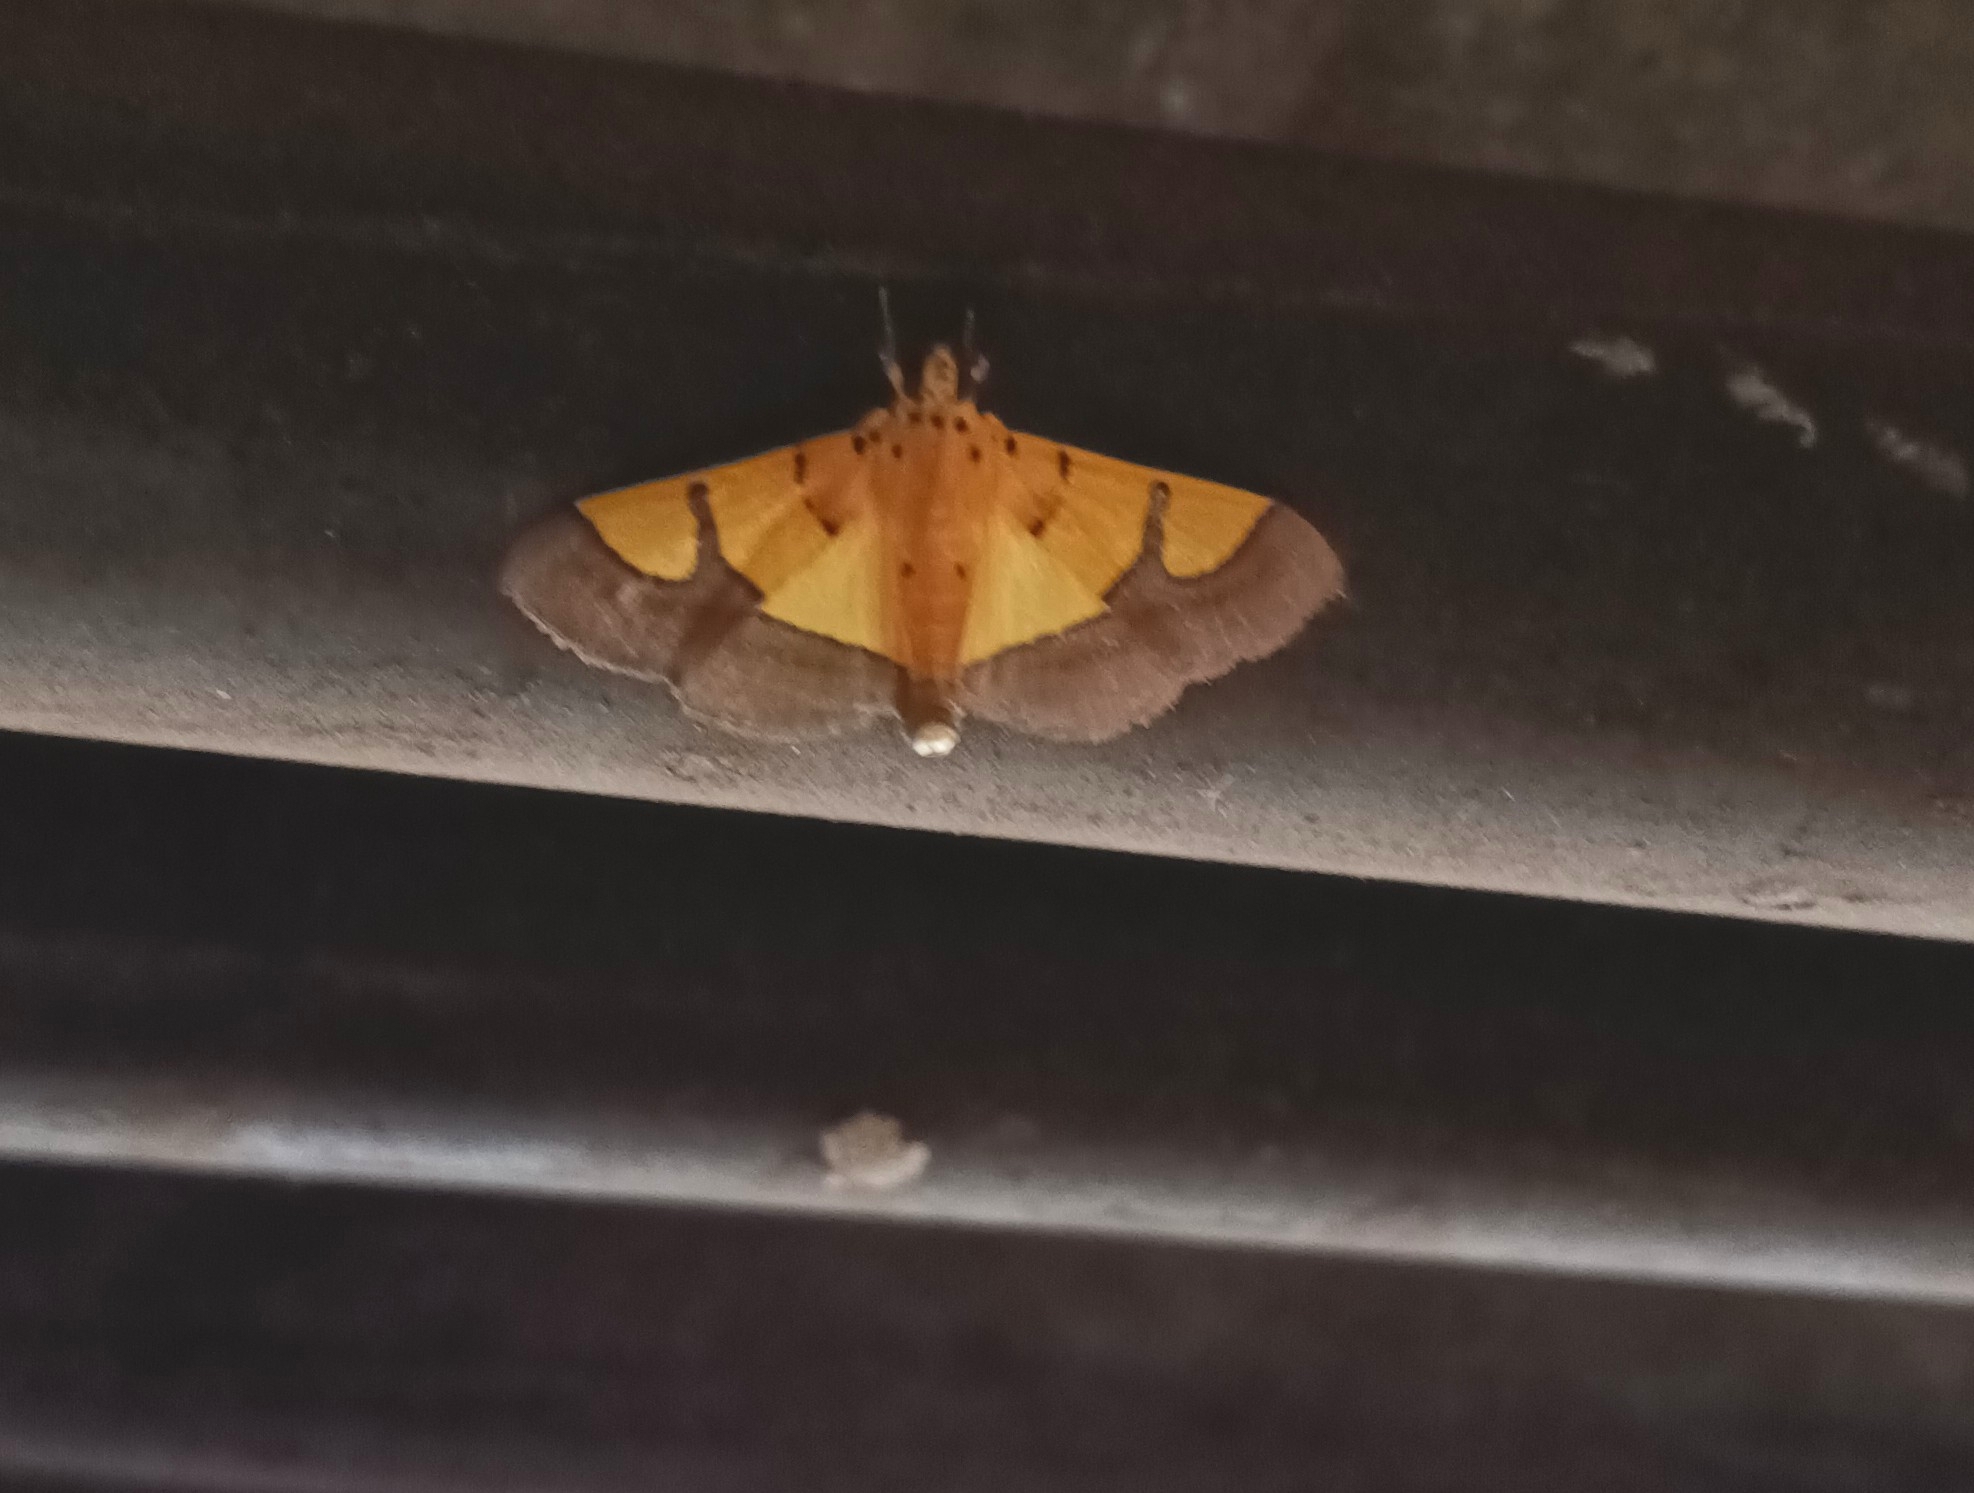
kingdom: Animalia
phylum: Arthropoda
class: Insecta
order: Lepidoptera
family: Crambidae
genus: Botyodes
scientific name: Botyodes
